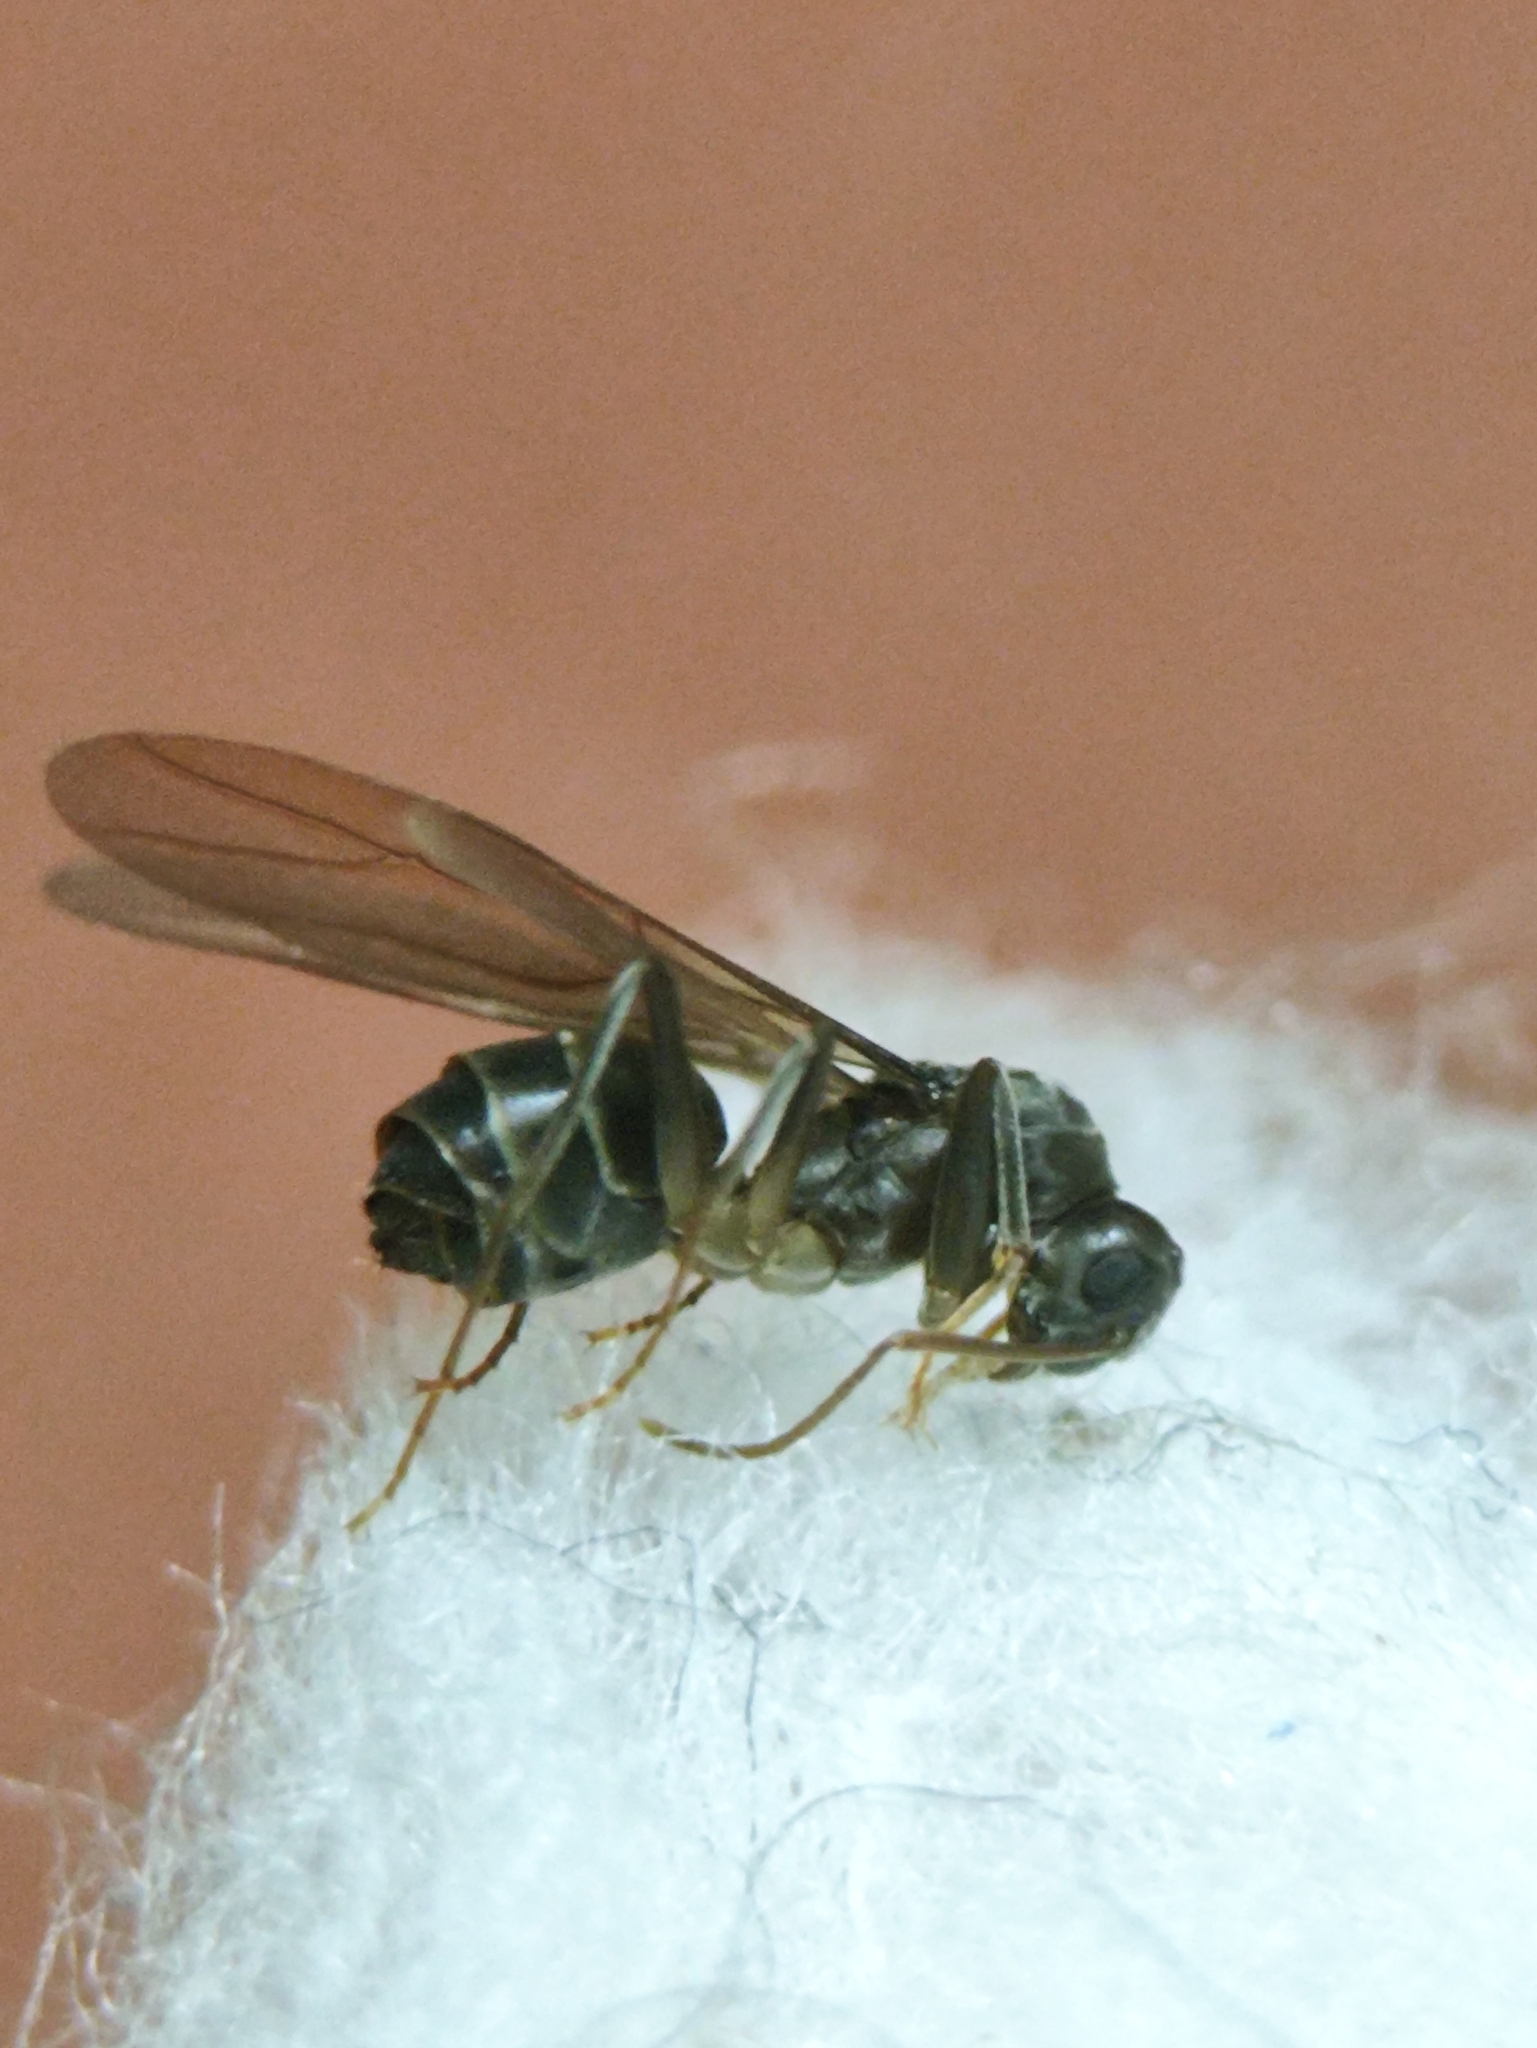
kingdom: Animalia
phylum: Arthropoda
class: Insecta
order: Hymenoptera
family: Formicidae
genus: Paratrechina
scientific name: Paratrechina longicornis
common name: Longhorned crazy ant
